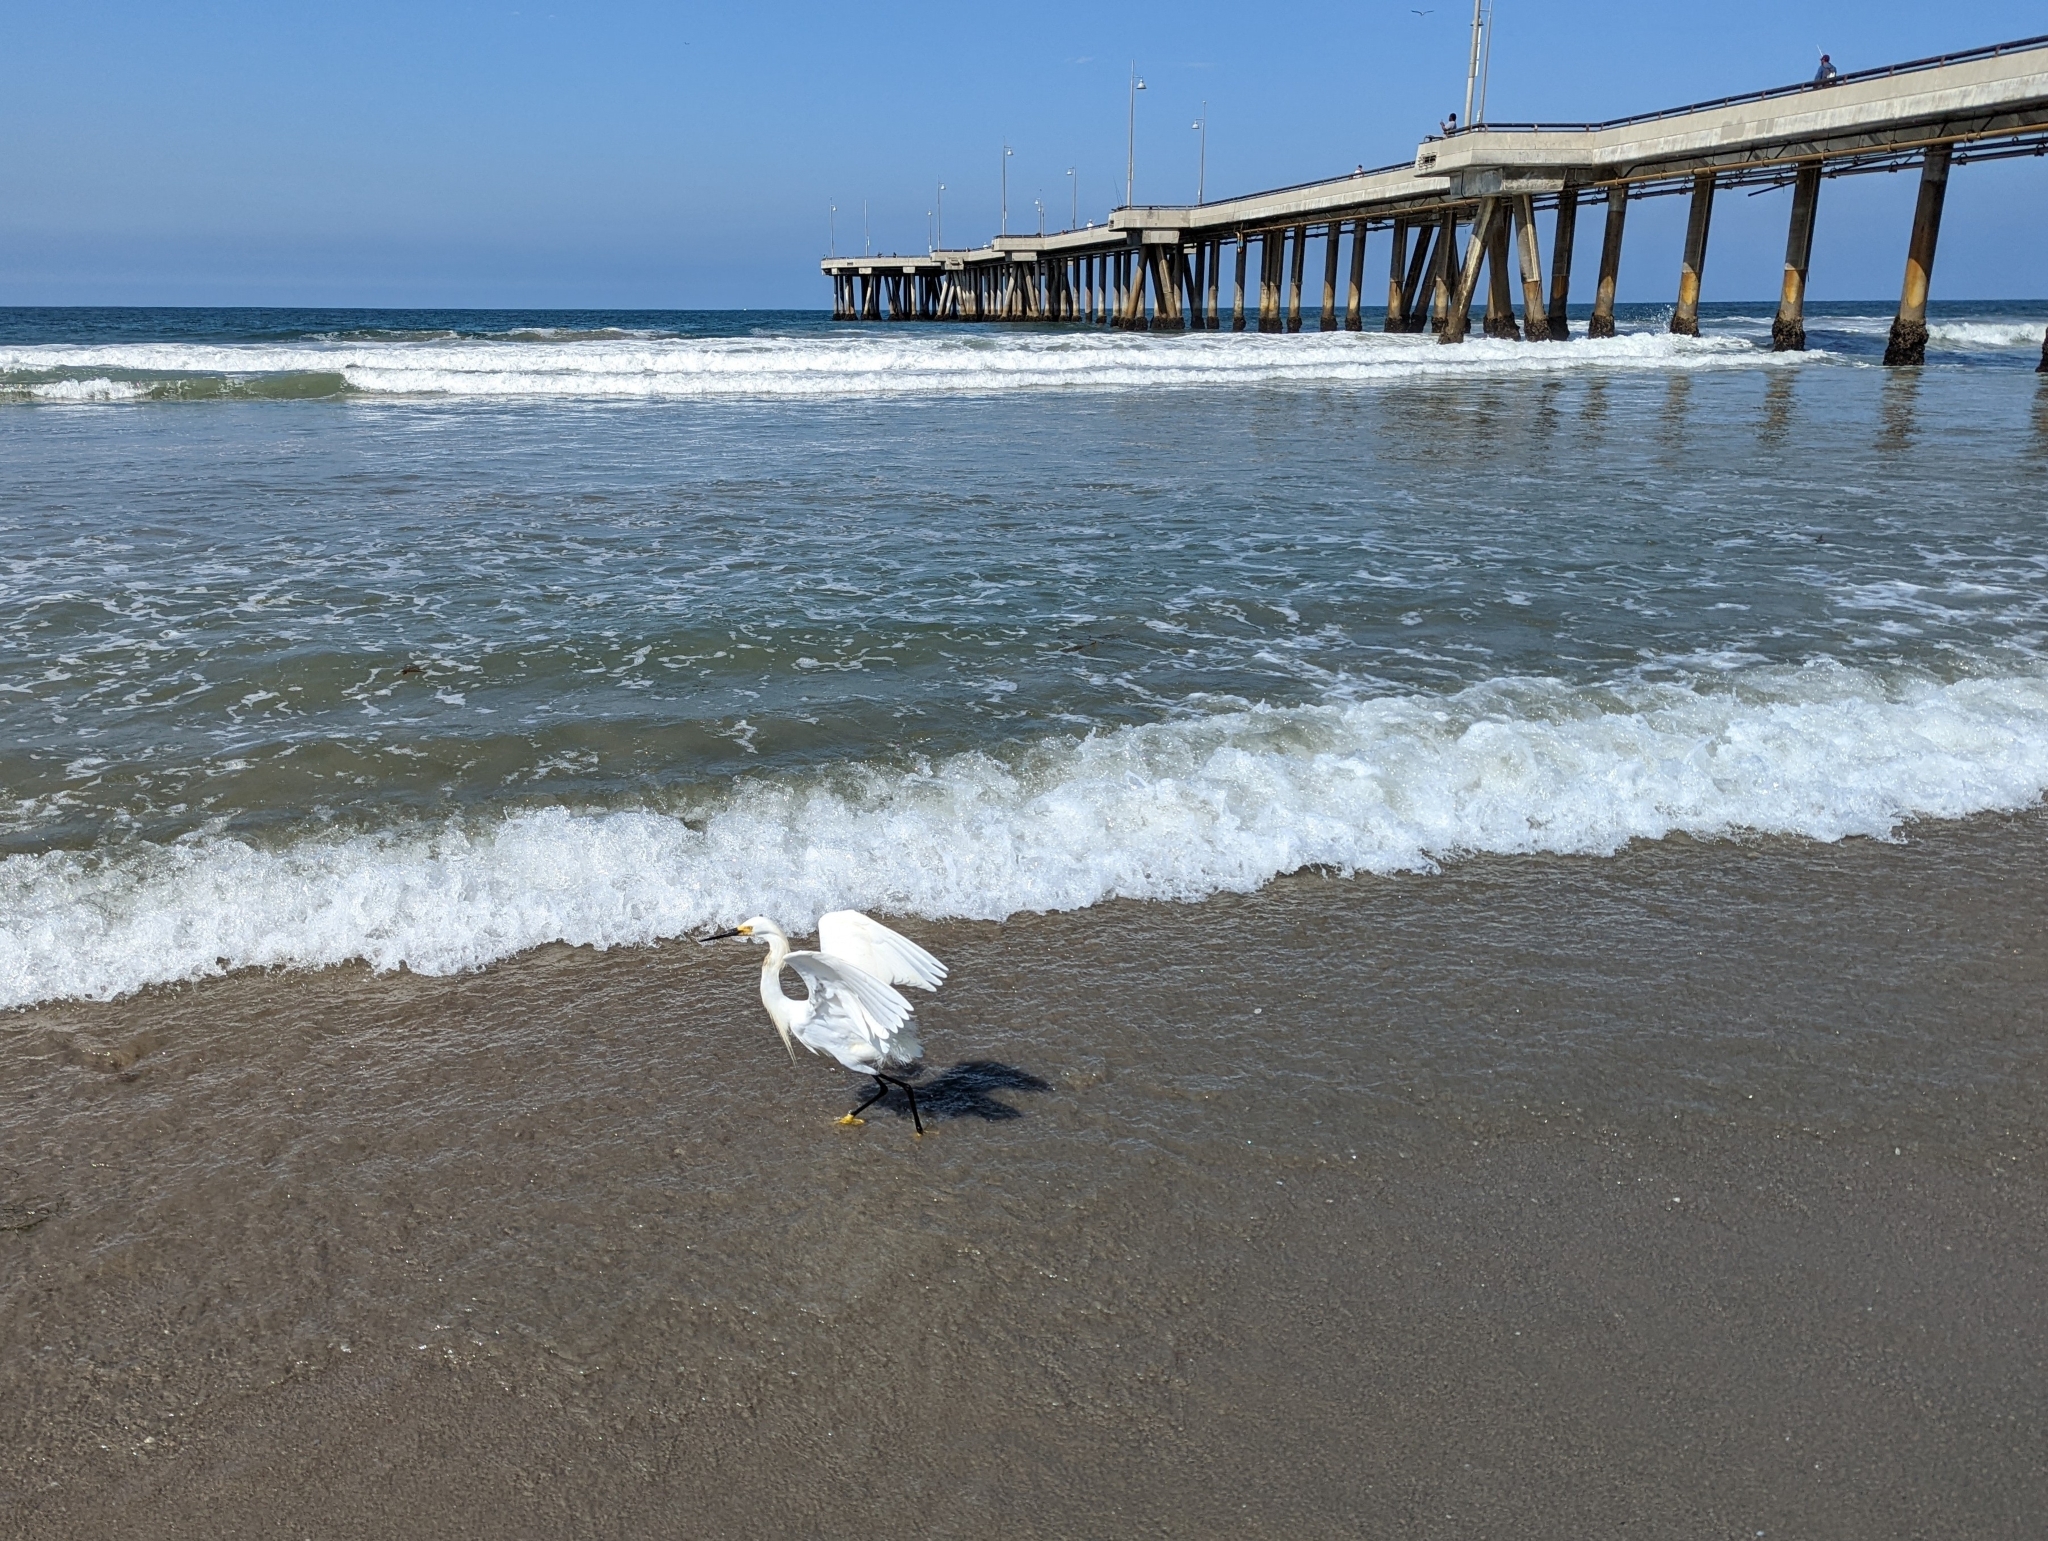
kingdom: Animalia
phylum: Chordata
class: Aves
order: Pelecaniformes
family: Ardeidae
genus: Egretta
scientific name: Egretta thula
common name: Snowy egret
